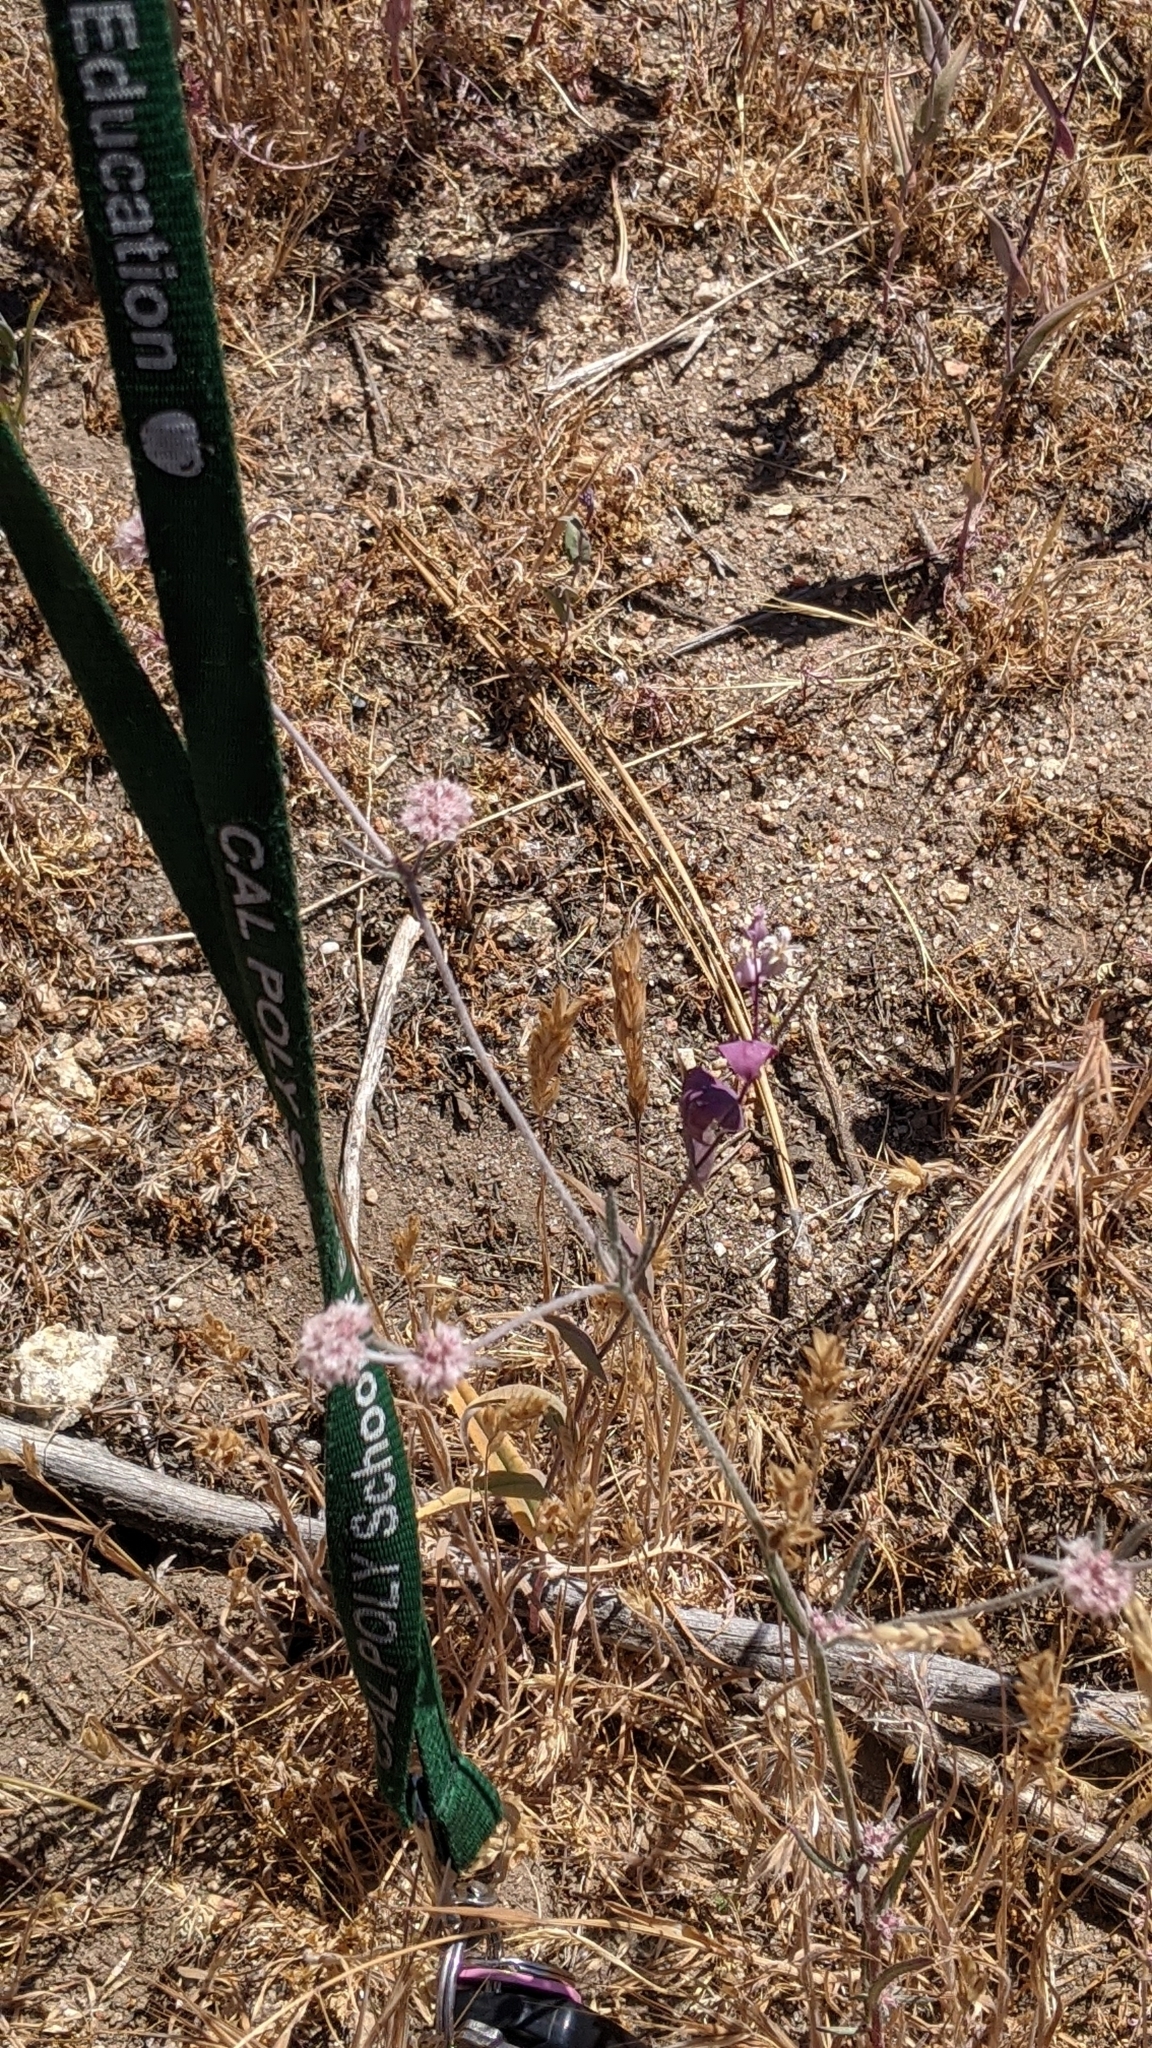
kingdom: Plantae
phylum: Tracheophyta
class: Magnoliopsida
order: Caryophyllales
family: Polygonaceae
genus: Chorizanthe
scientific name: Chorizanthe membranacea
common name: Pink spineflower
